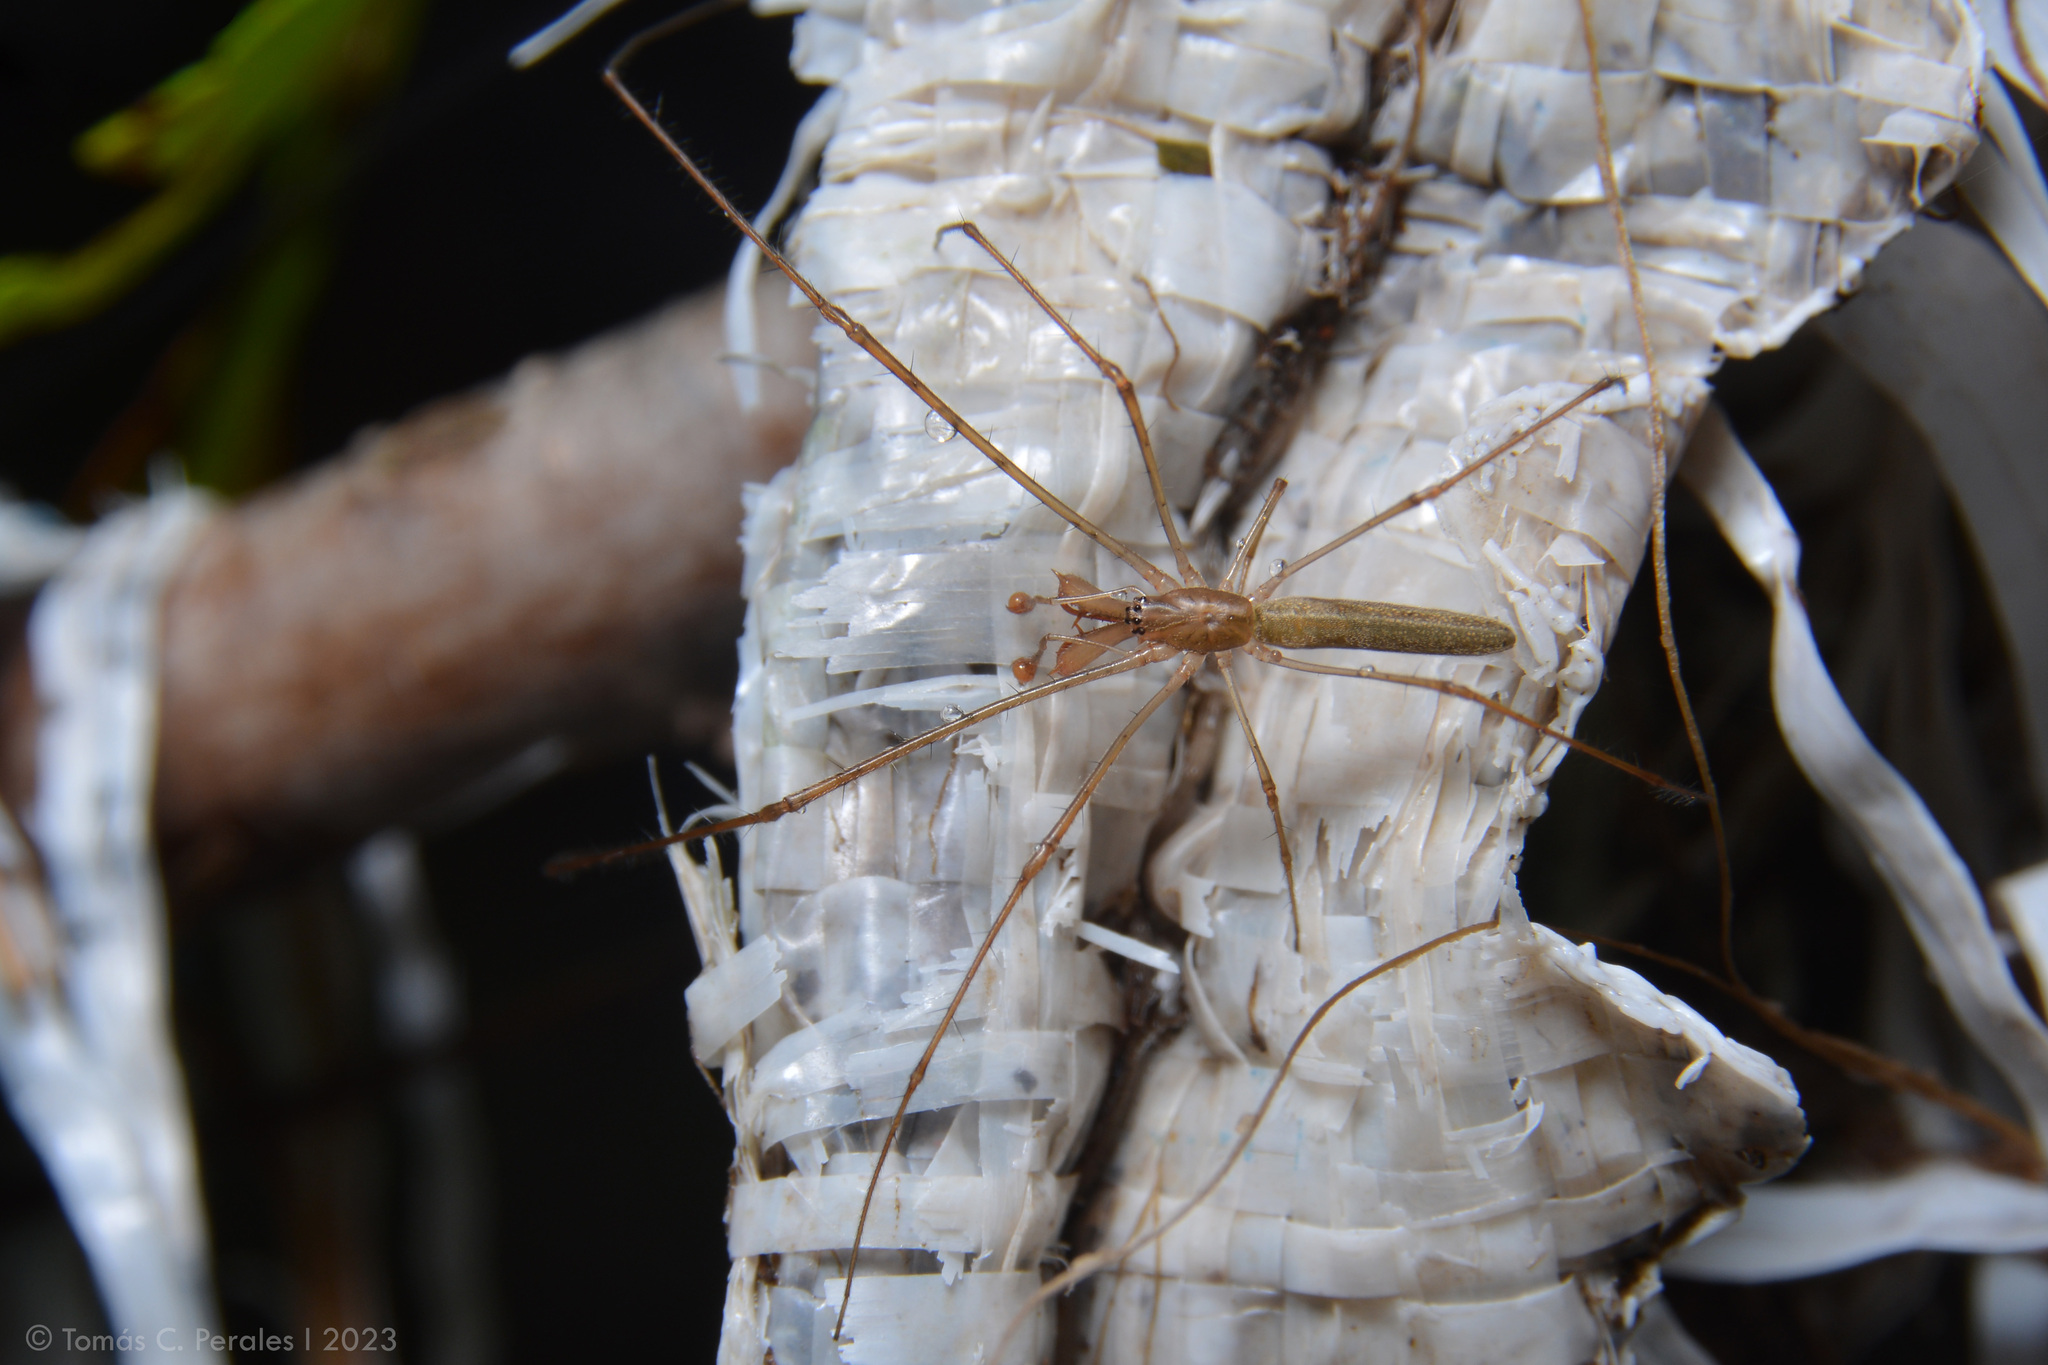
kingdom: Animalia
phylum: Arthropoda
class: Arachnida
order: Araneae
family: Tetragnathidae
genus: Tetragnatha
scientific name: Tetragnatha
